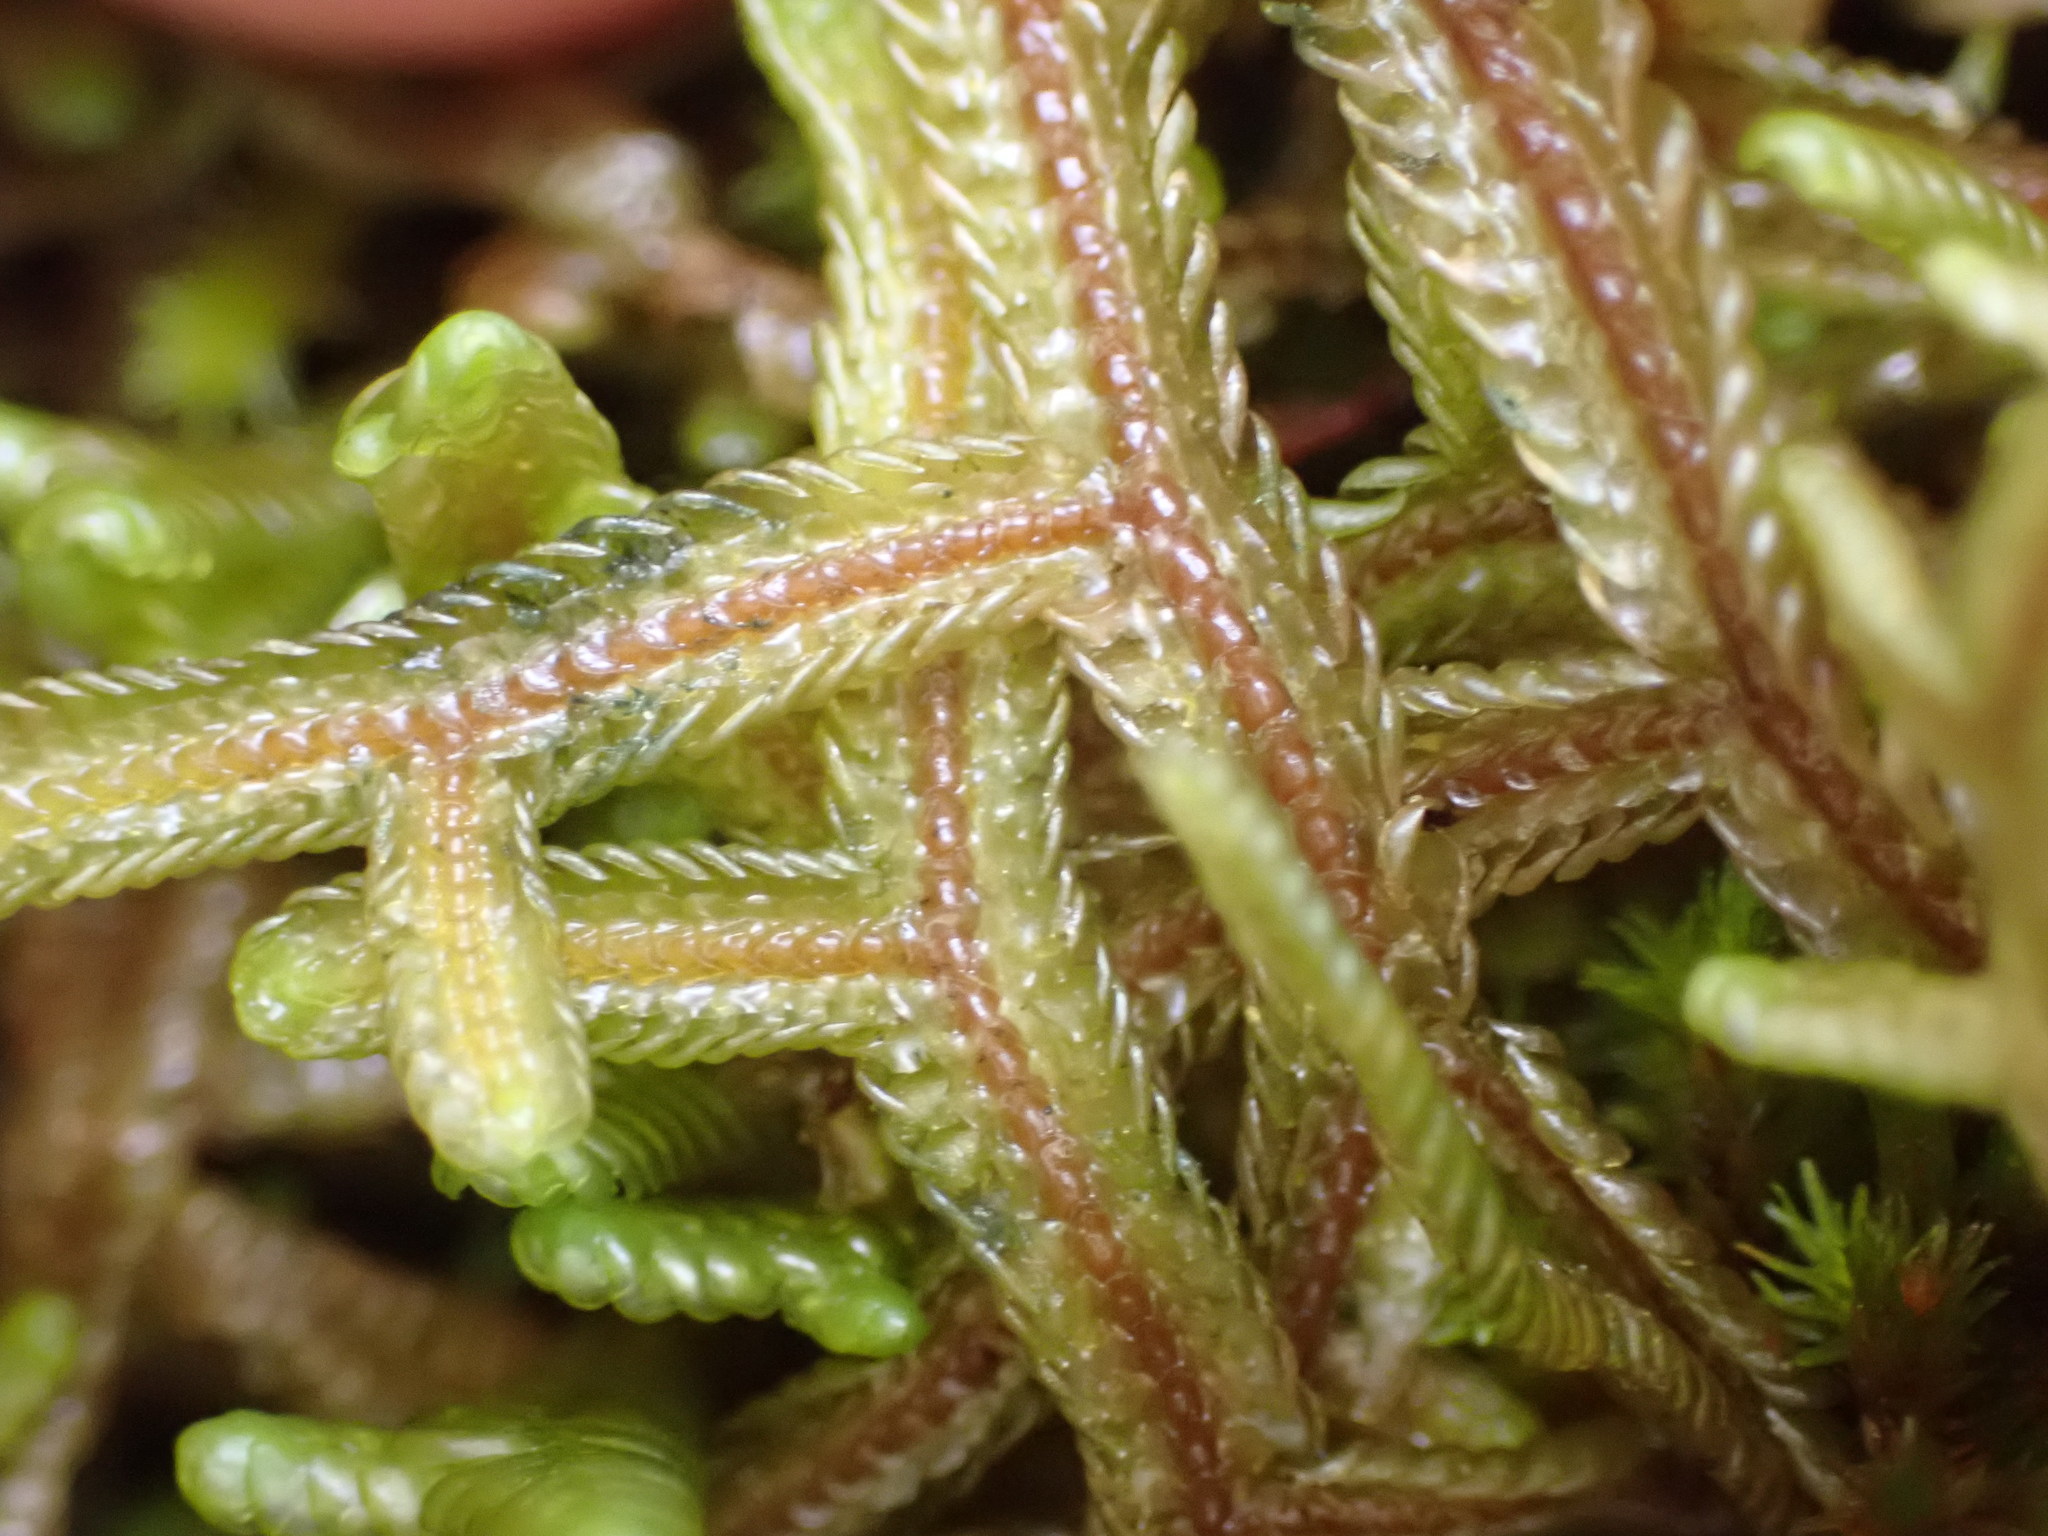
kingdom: Plantae
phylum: Marchantiophyta
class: Jungermanniopsida
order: Porellales
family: Porellaceae
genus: Porella
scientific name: Porella elegantula
